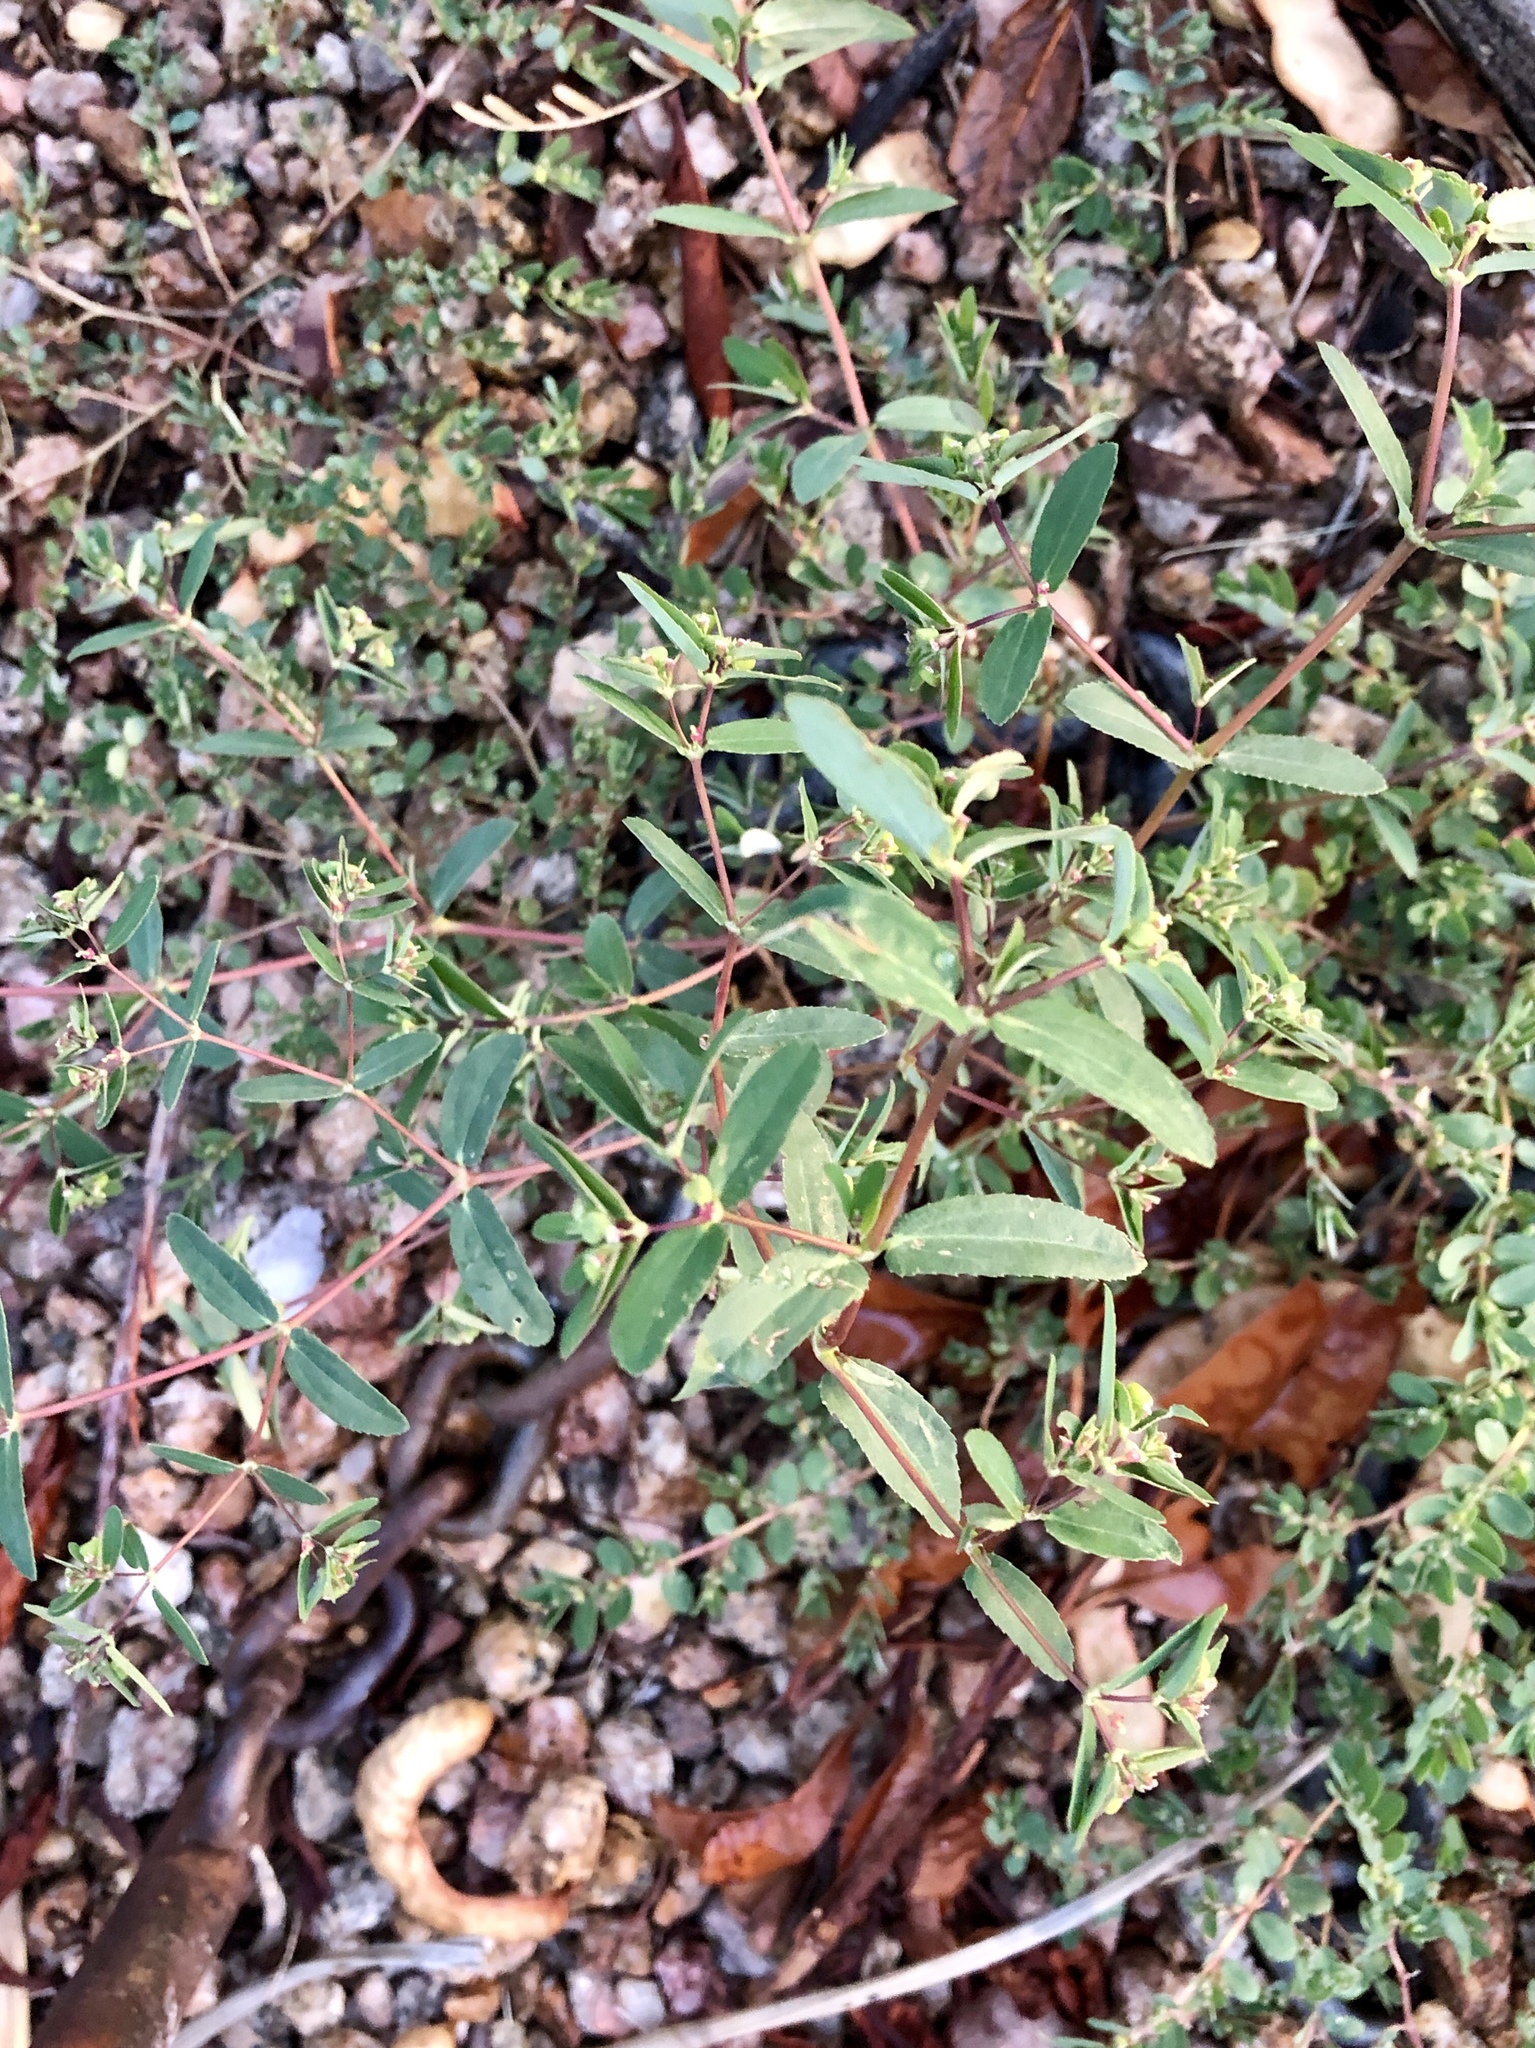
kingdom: Plantae
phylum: Tracheophyta
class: Magnoliopsida
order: Malpighiales
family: Euphorbiaceae
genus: Euphorbia
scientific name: Euphorbia hyssopifolia
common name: Hyssopleaf sandmat
